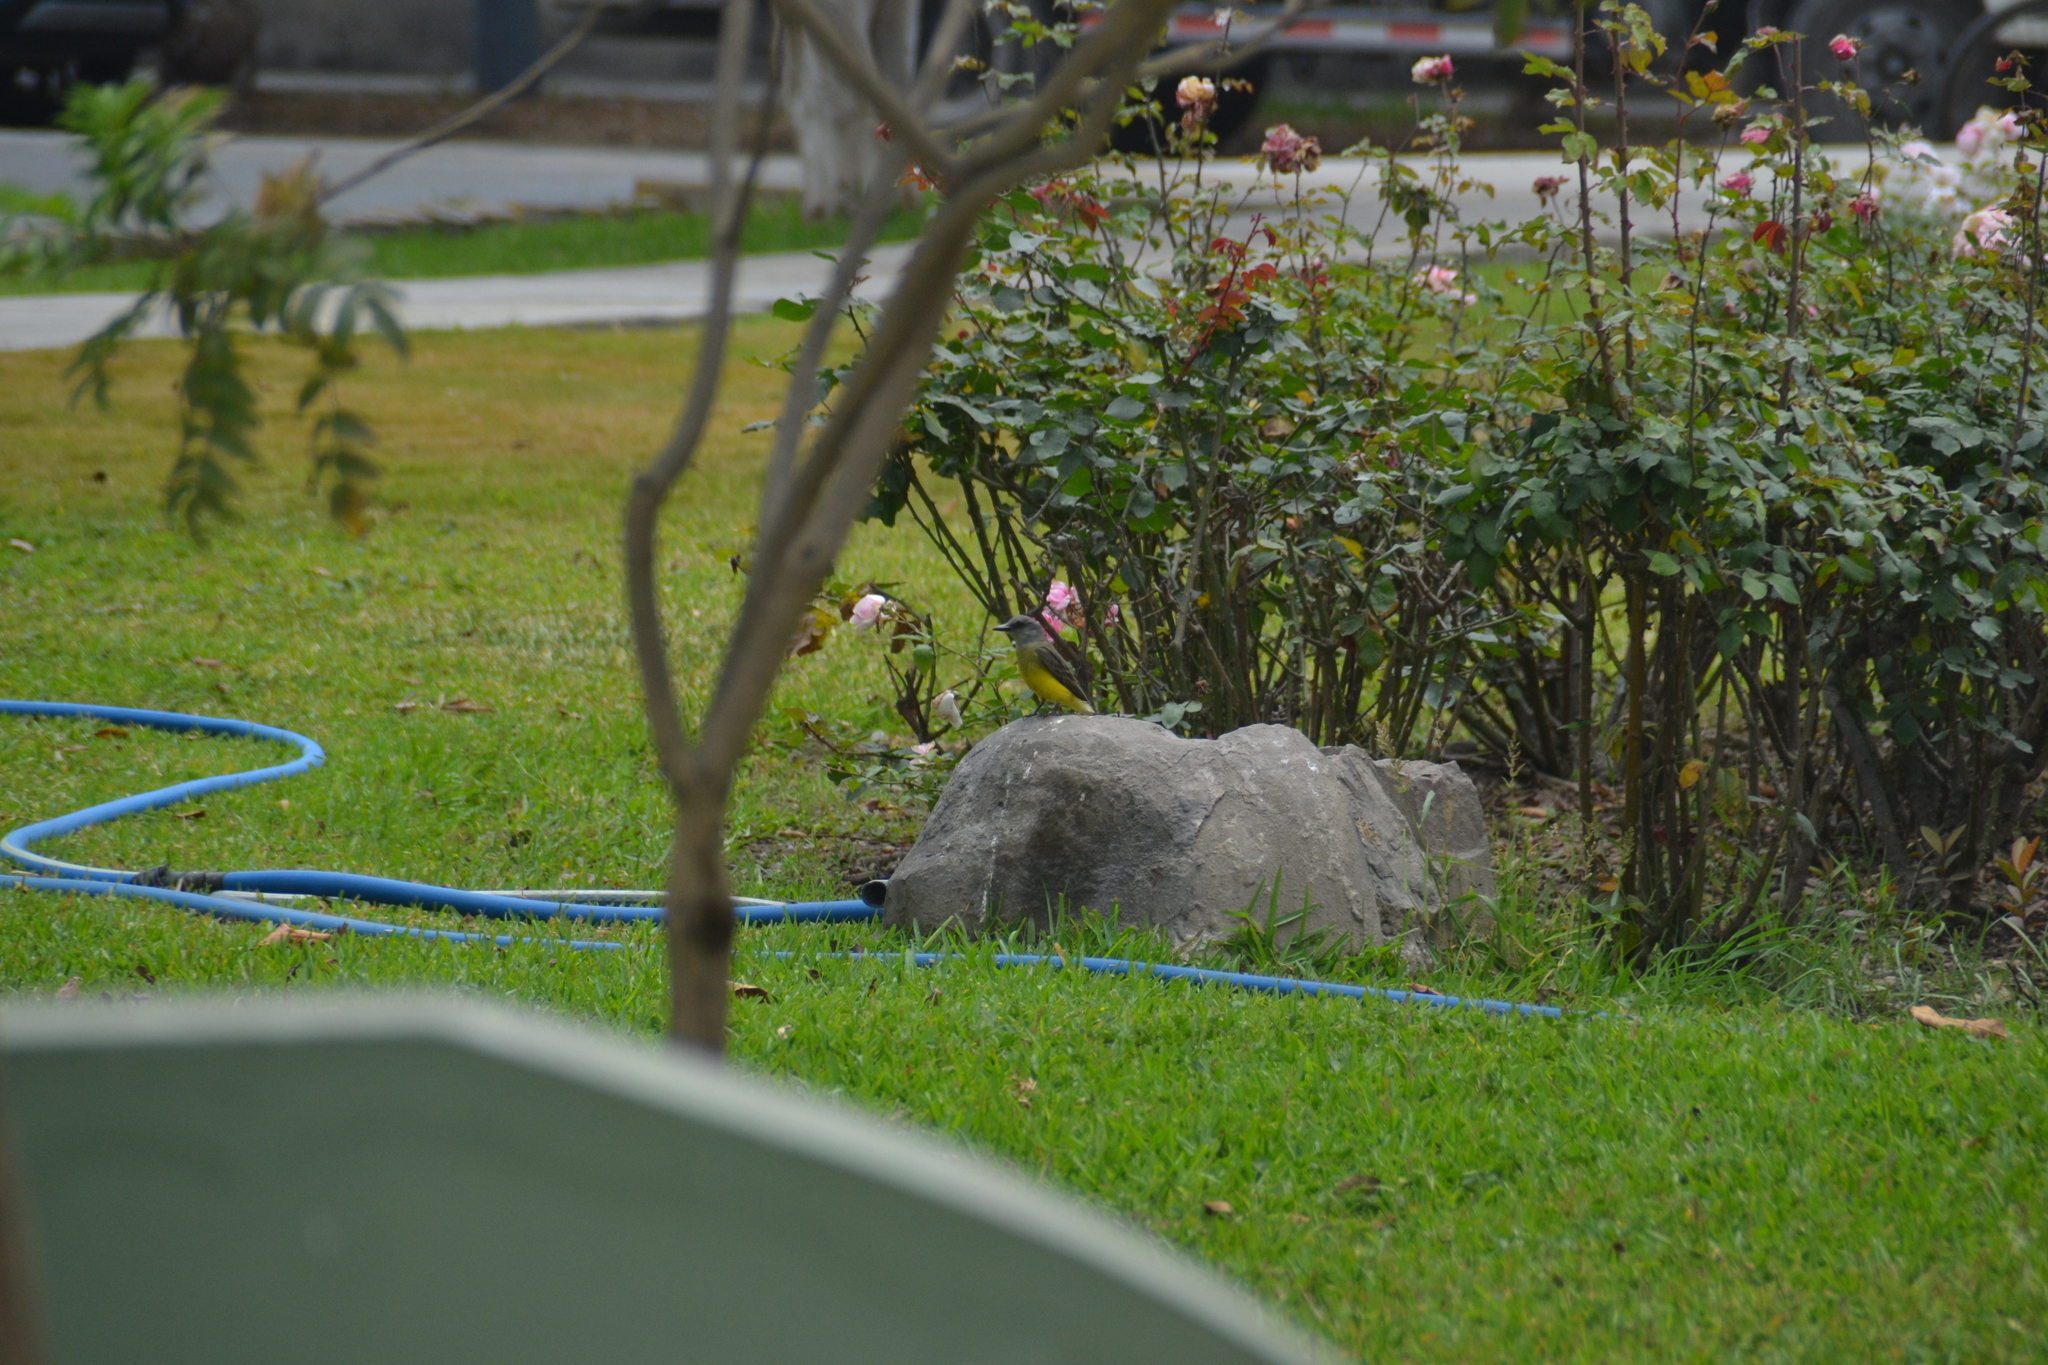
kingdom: Animalia
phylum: Chordata
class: Aves
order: Passeriformes
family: Tyrannidae
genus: Tyrannus
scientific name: Tyrannus melancholicus
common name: Tropical kingbird
